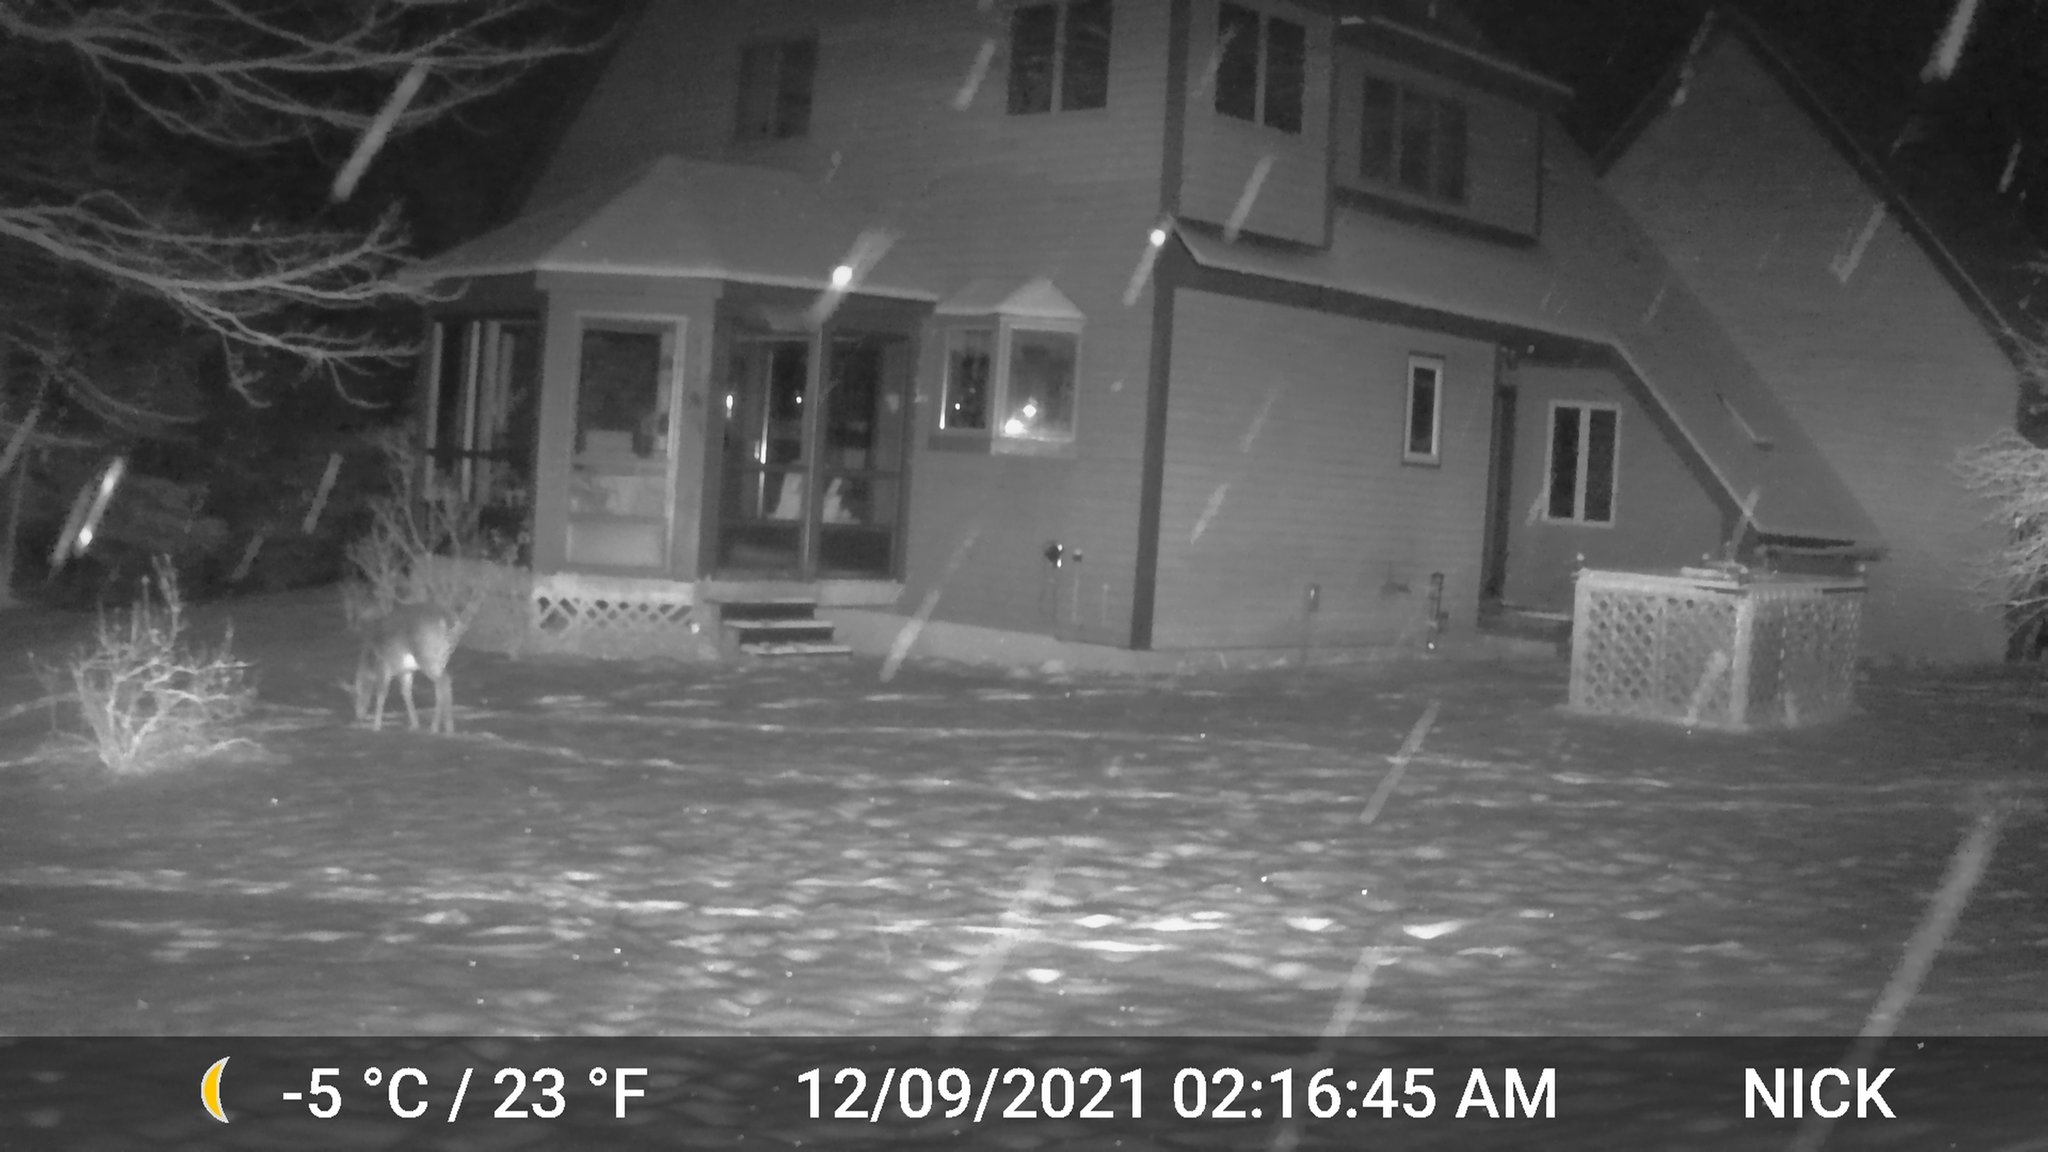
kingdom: Animalia
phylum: Chordata
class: Mammalia
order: Artiodactyla
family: Cervidae
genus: Odocoileus
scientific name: Odocoileus virginianus
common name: White-tailed deer
